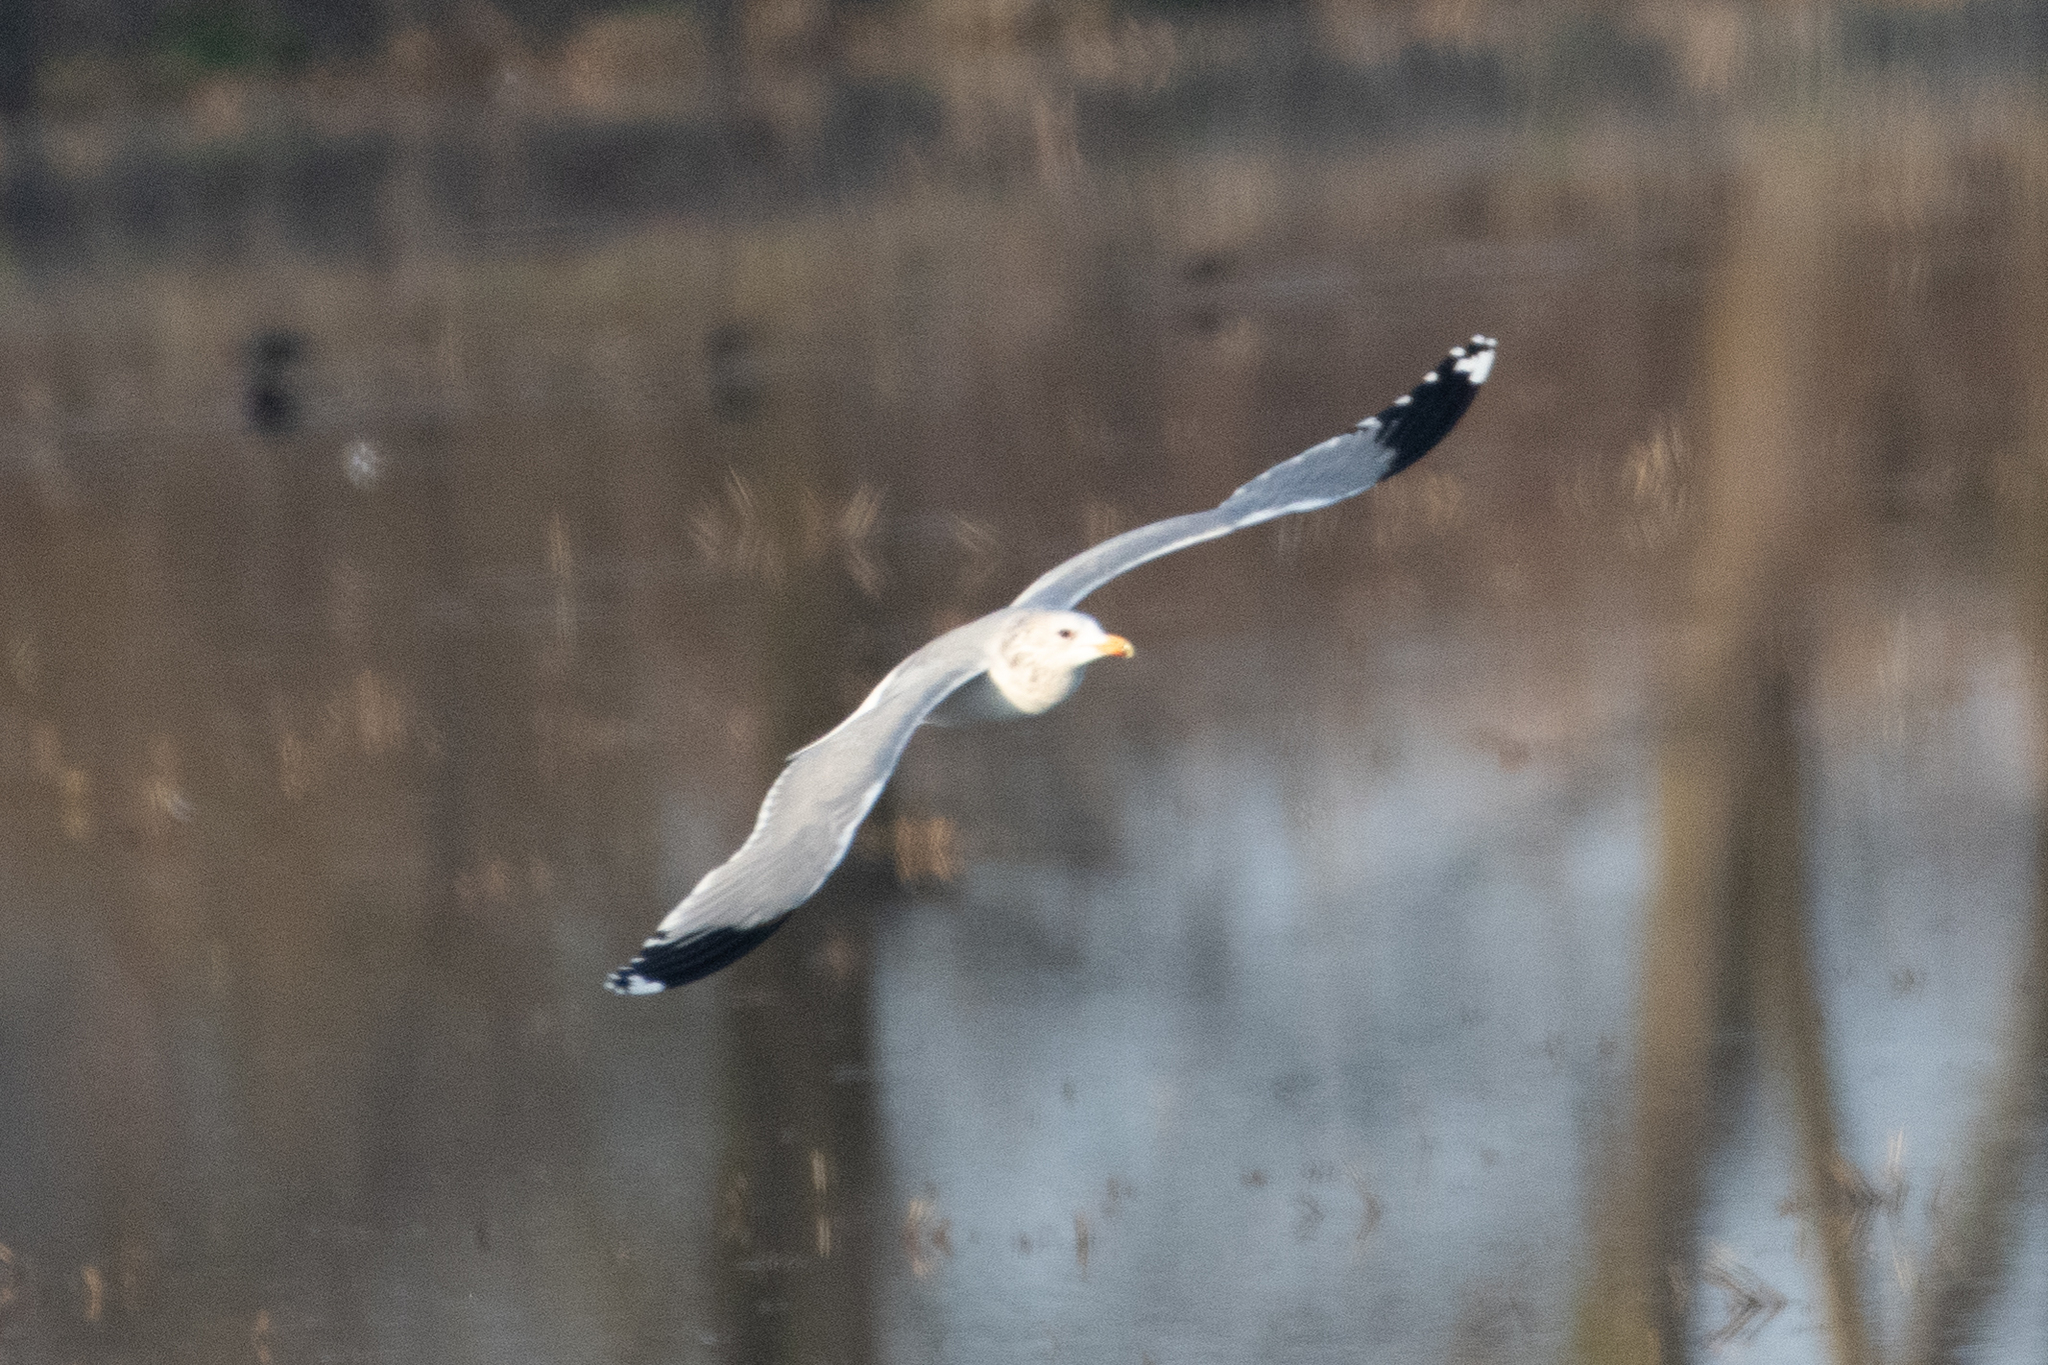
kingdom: Animalia
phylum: Chordata
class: Aves
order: Charadriiformes
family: Laridae
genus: Larus
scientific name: Larus californicus
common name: California gull
